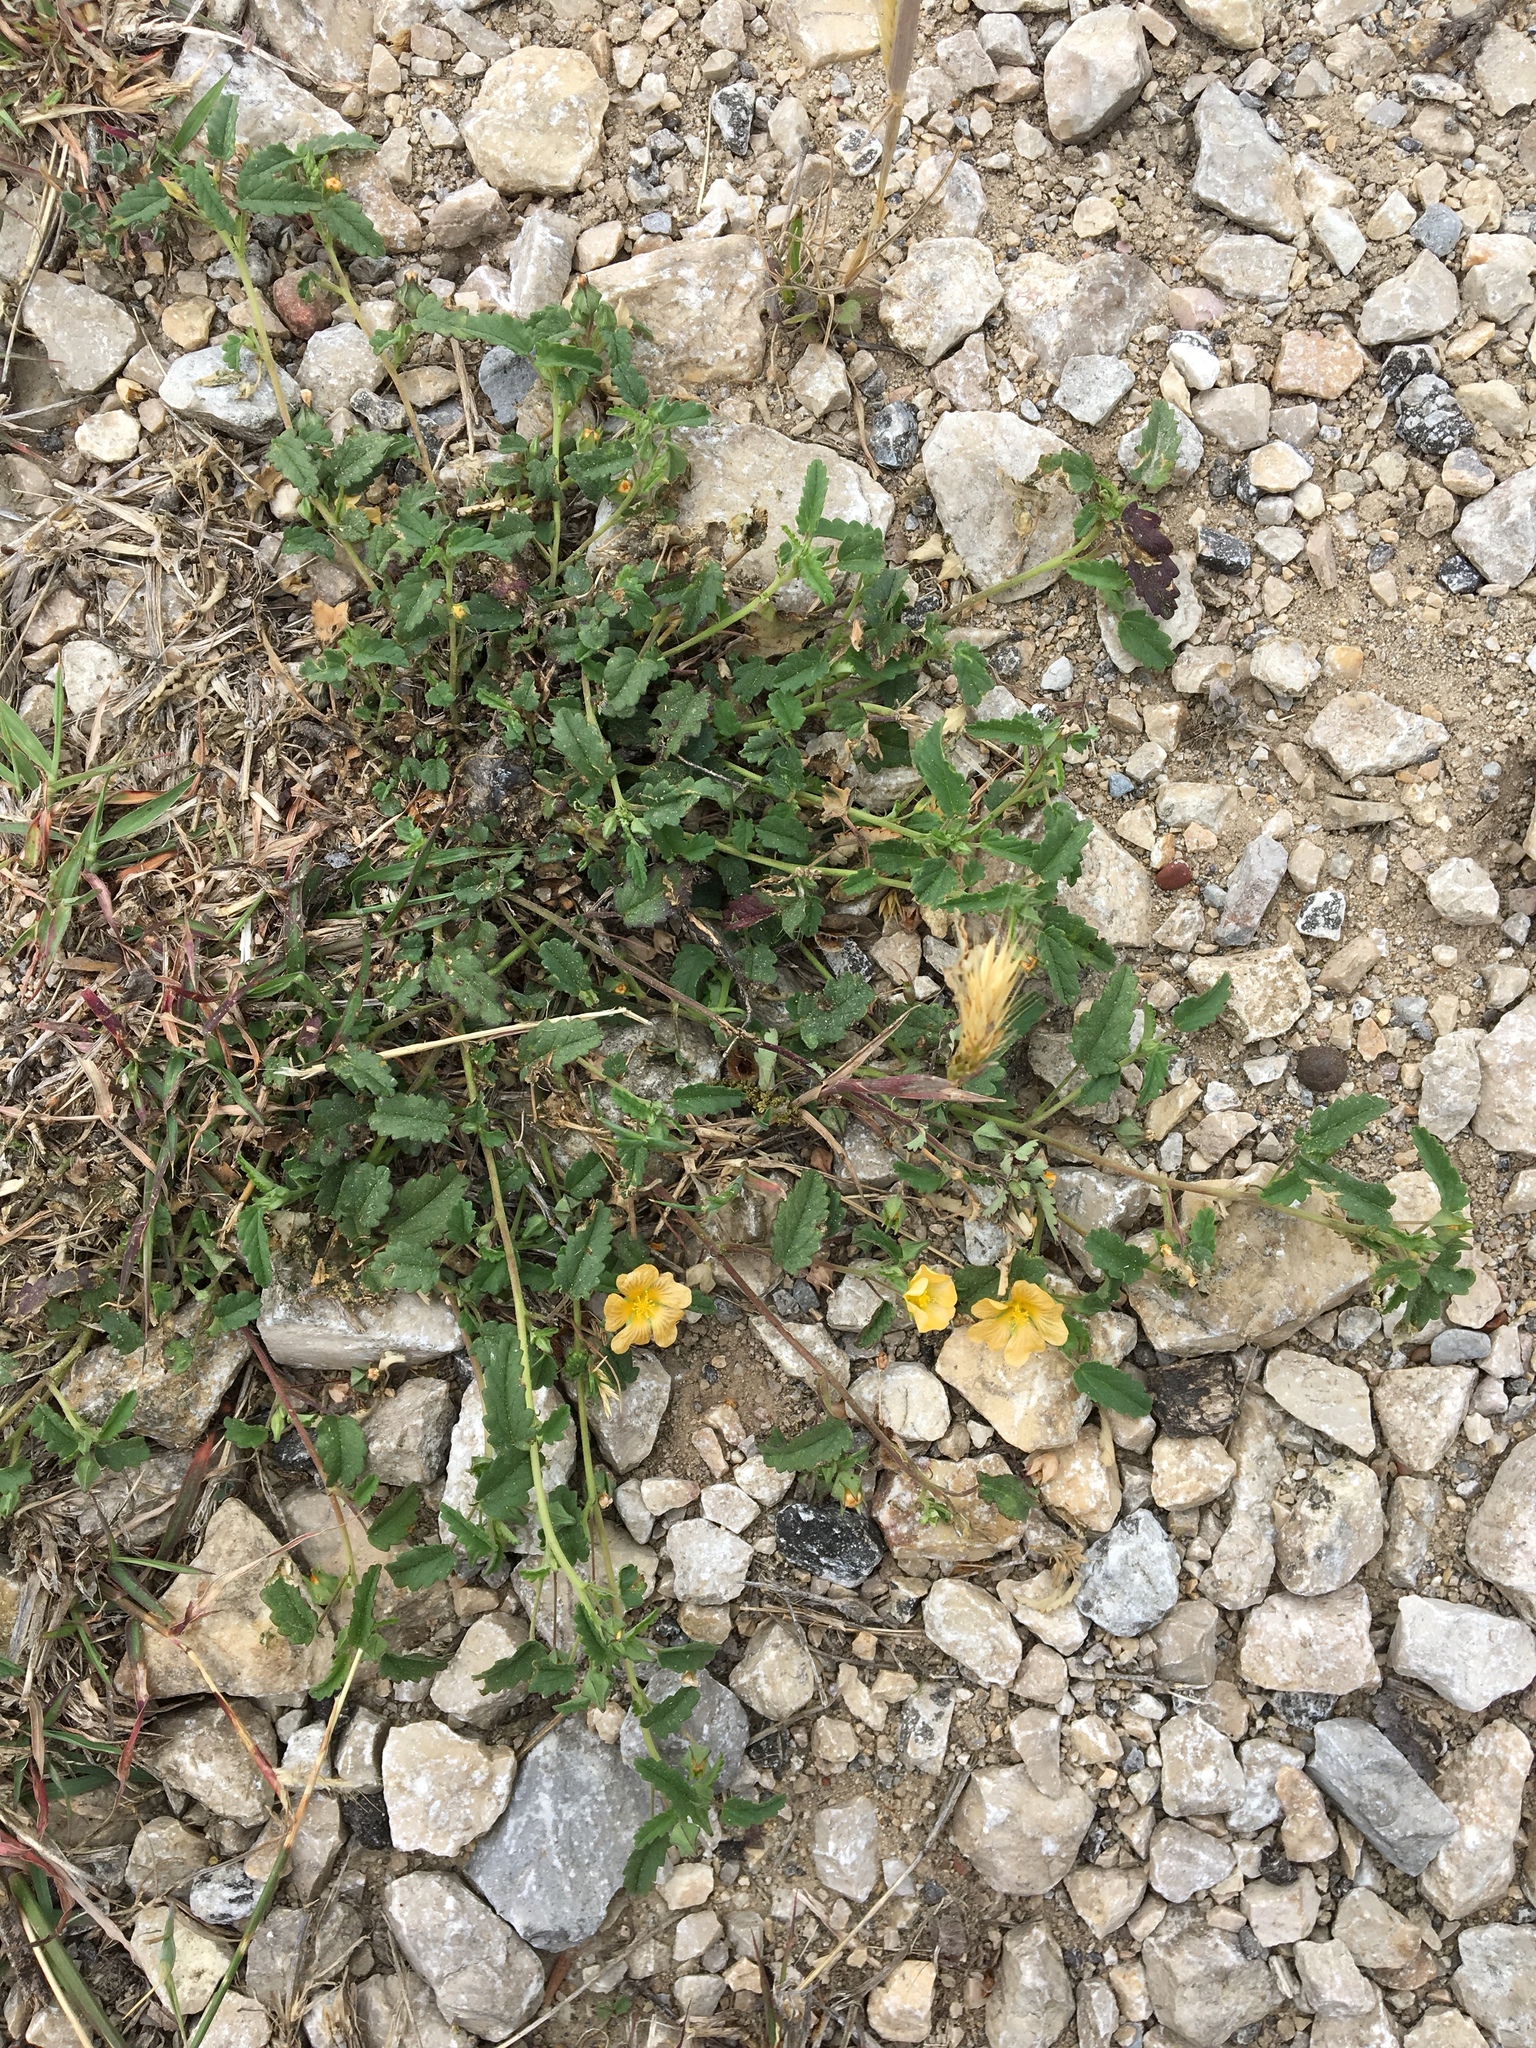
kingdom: Plantae
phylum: Tracheophyta
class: Magnoliopsida
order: Malvales
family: Malvaceae
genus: Sida
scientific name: Sida abutilifolia
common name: Spreading fanpetals
